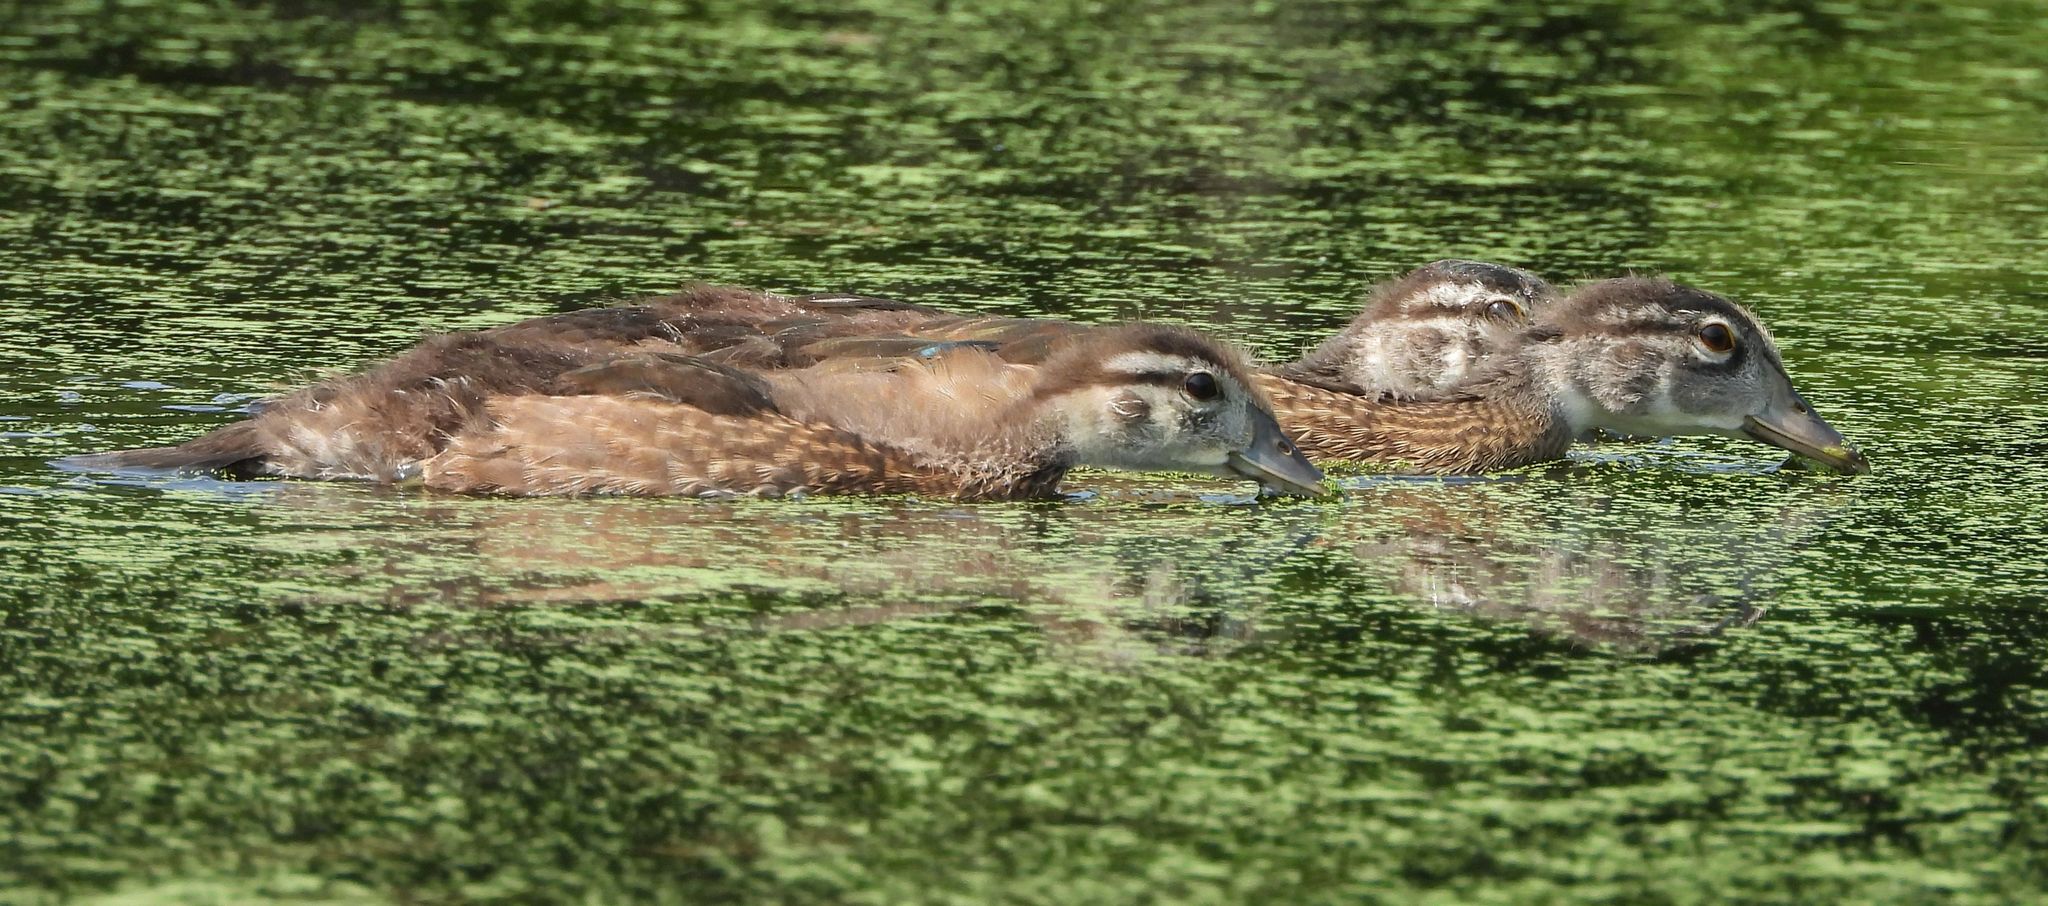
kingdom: Animalia
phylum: Chordata
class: Aves
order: Anseriformes
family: Anatidae
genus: Aix
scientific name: Aix sponsa
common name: Wood duck
